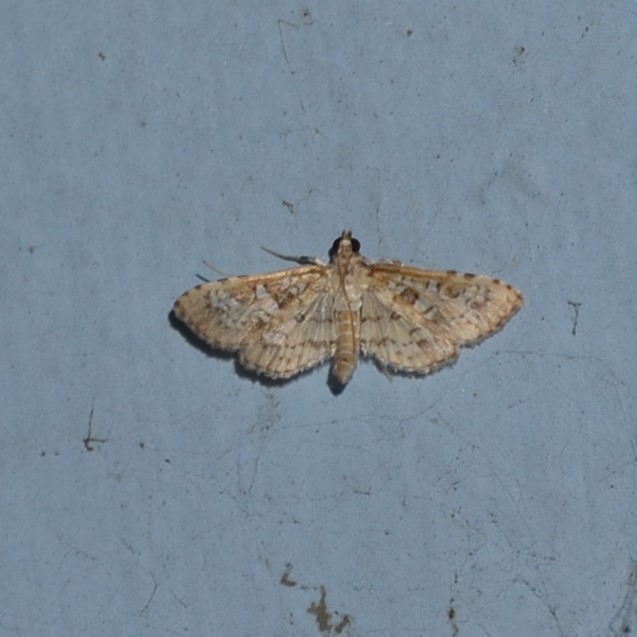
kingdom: Animalia
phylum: Arthropoda
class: Insecta
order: Lepidoptera
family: Crambidae
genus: Samea
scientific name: Samea multiplicalis
